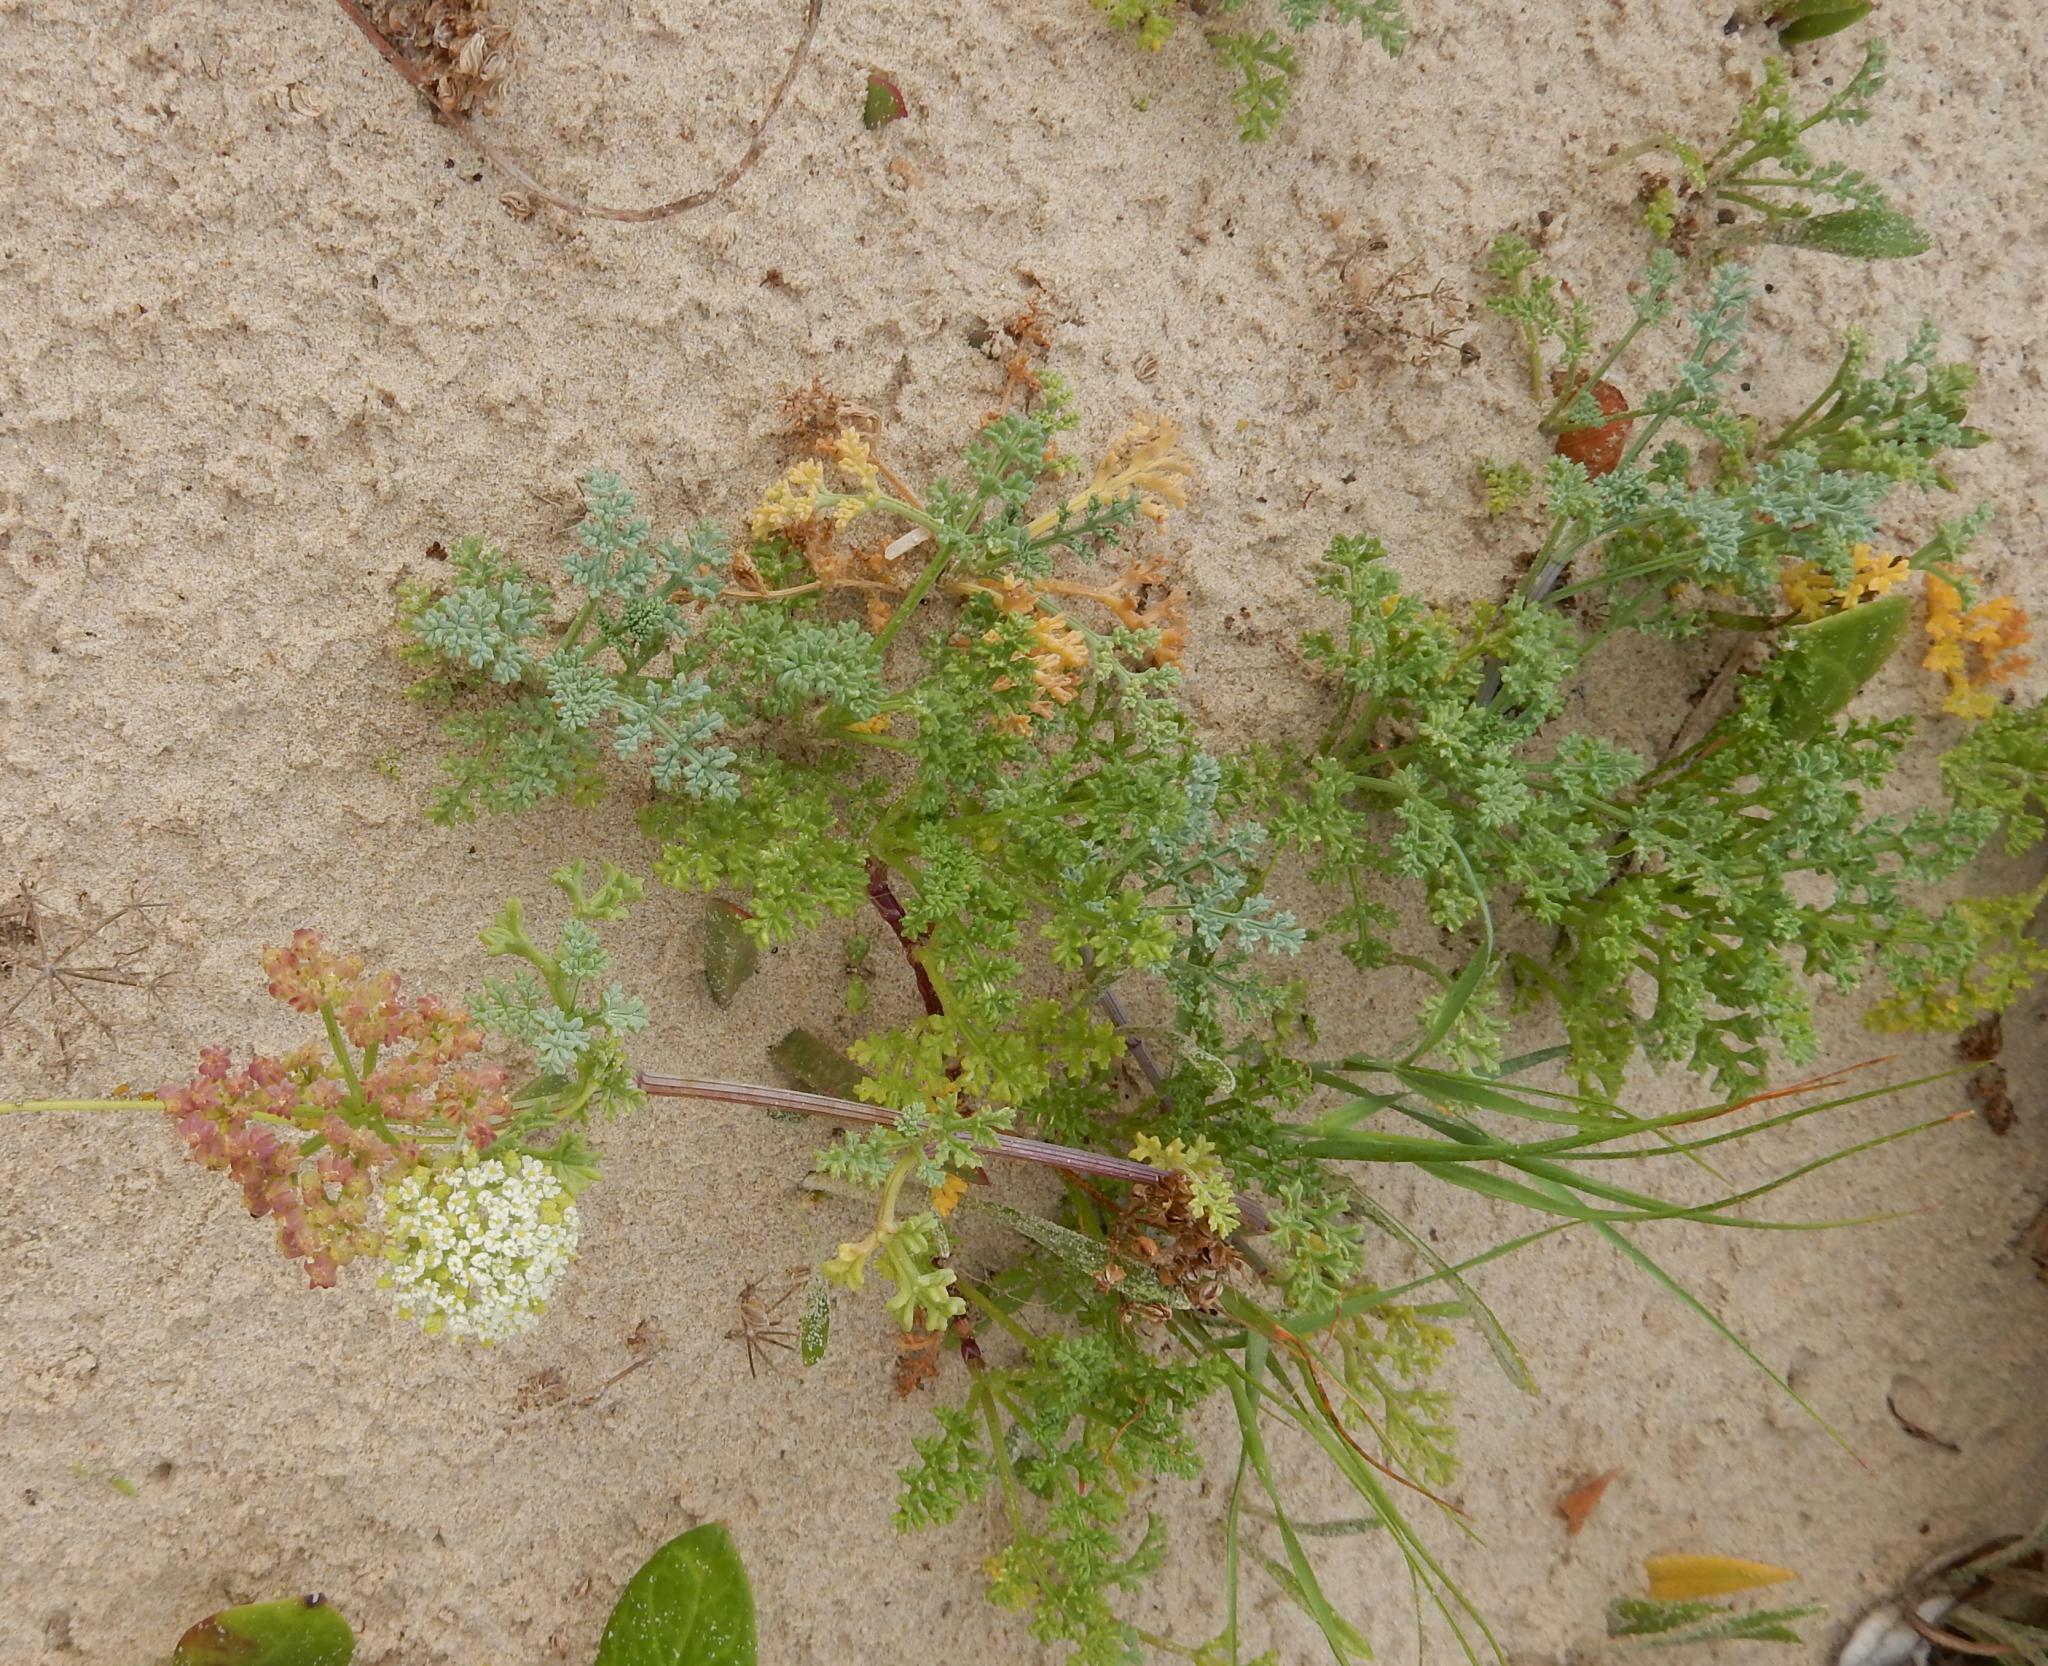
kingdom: Plantae
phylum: Tracheophyta
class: Magnoliopsida
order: Apiales
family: Apiaceae
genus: Dasispermum
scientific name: Dasispermum suffruticosum
